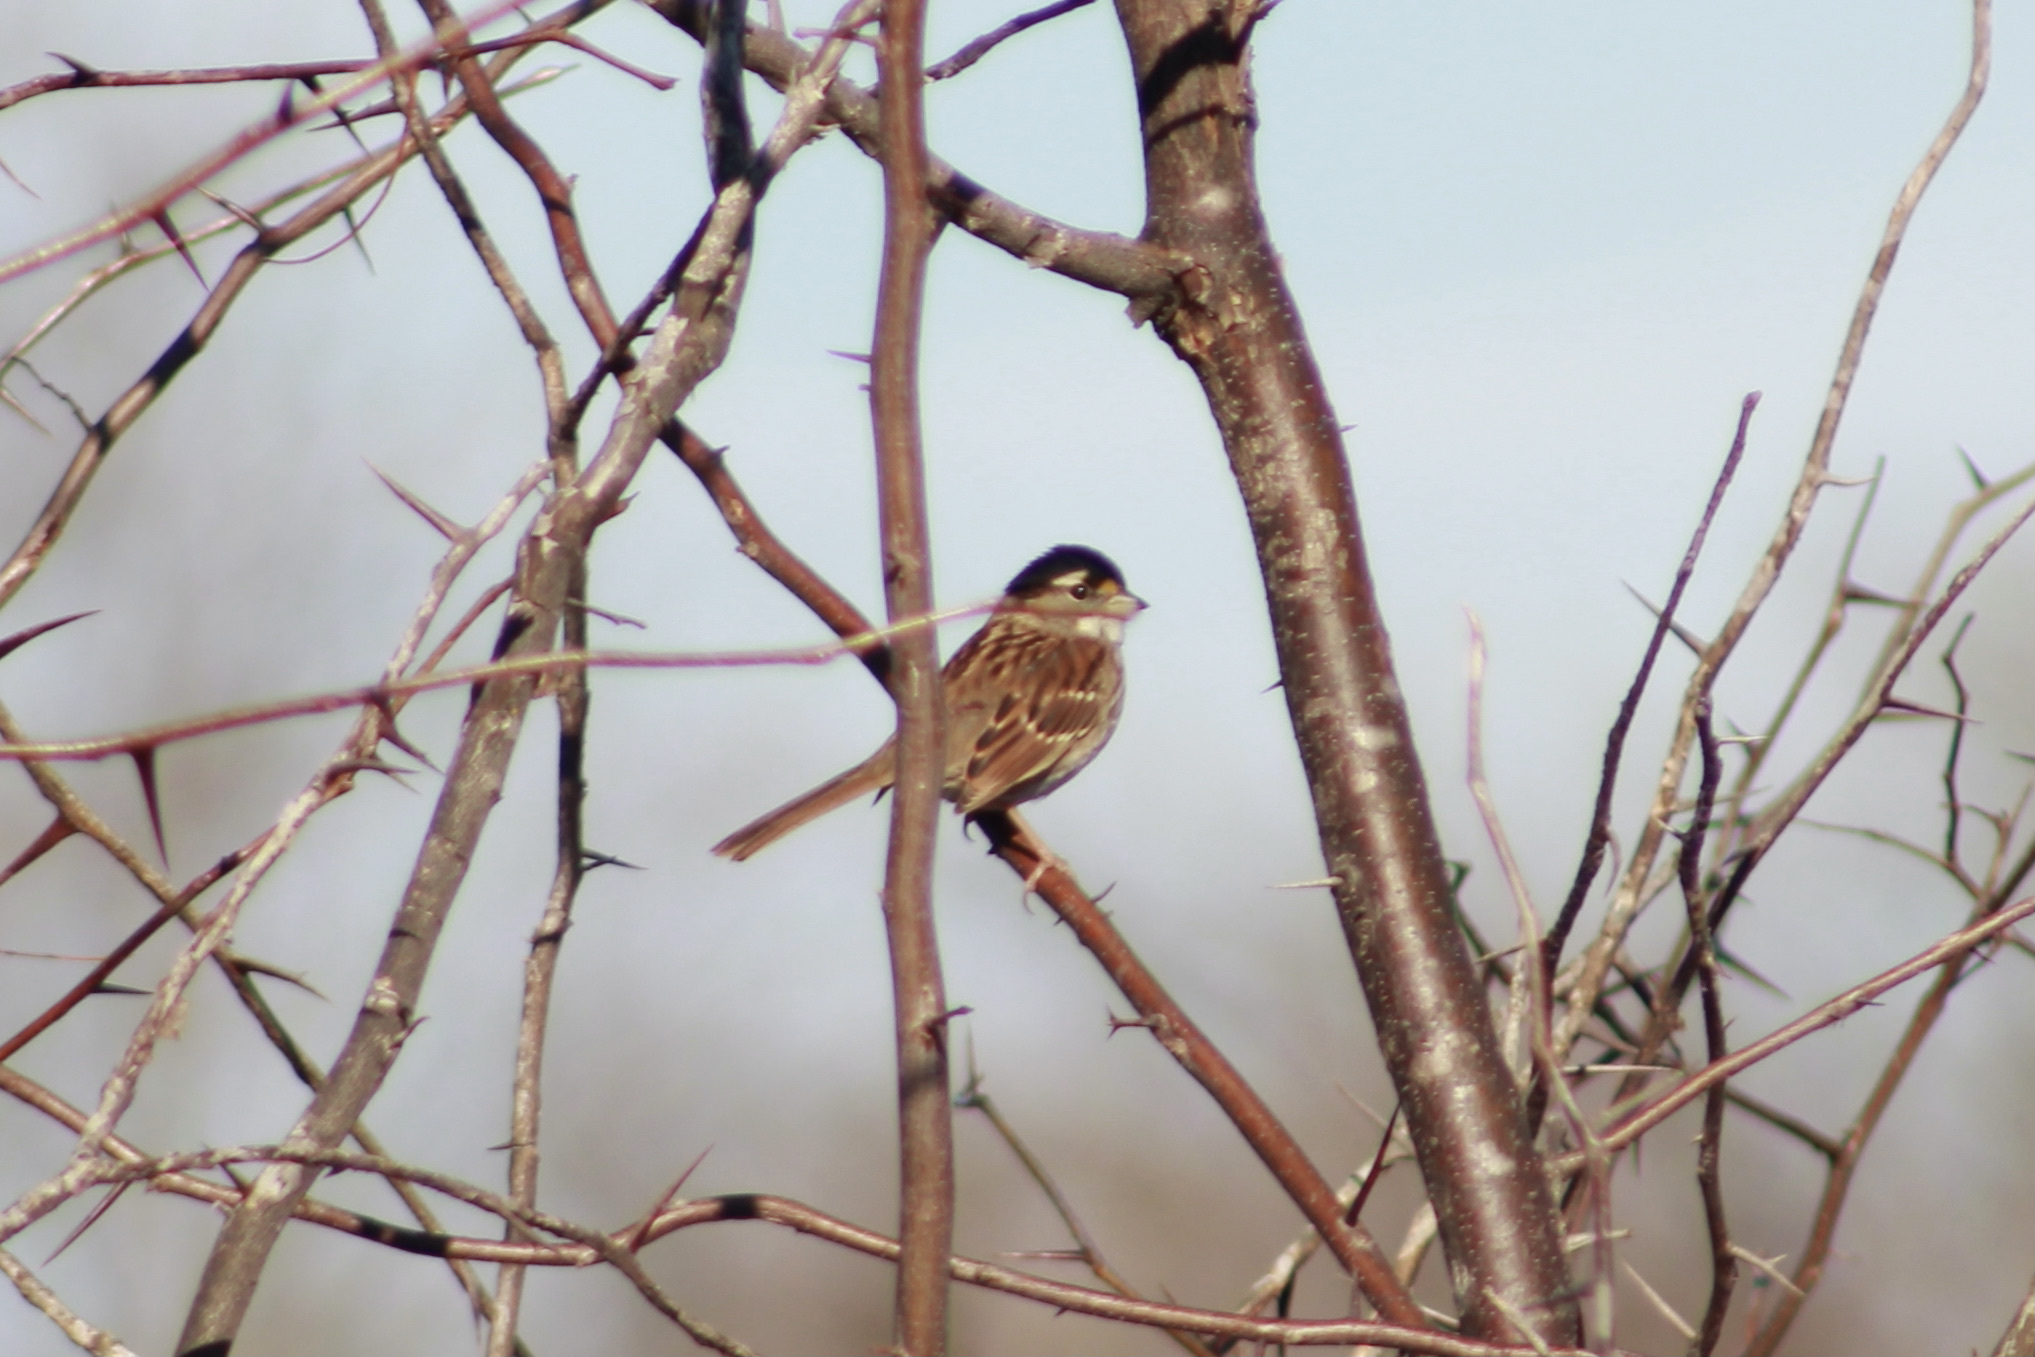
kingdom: Animalia
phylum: Chordata
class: Aves
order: Passeriformes
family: Passerellidae
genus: Zonotrichia
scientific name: Zonotrichia albicollis
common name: White-throated sparrow
